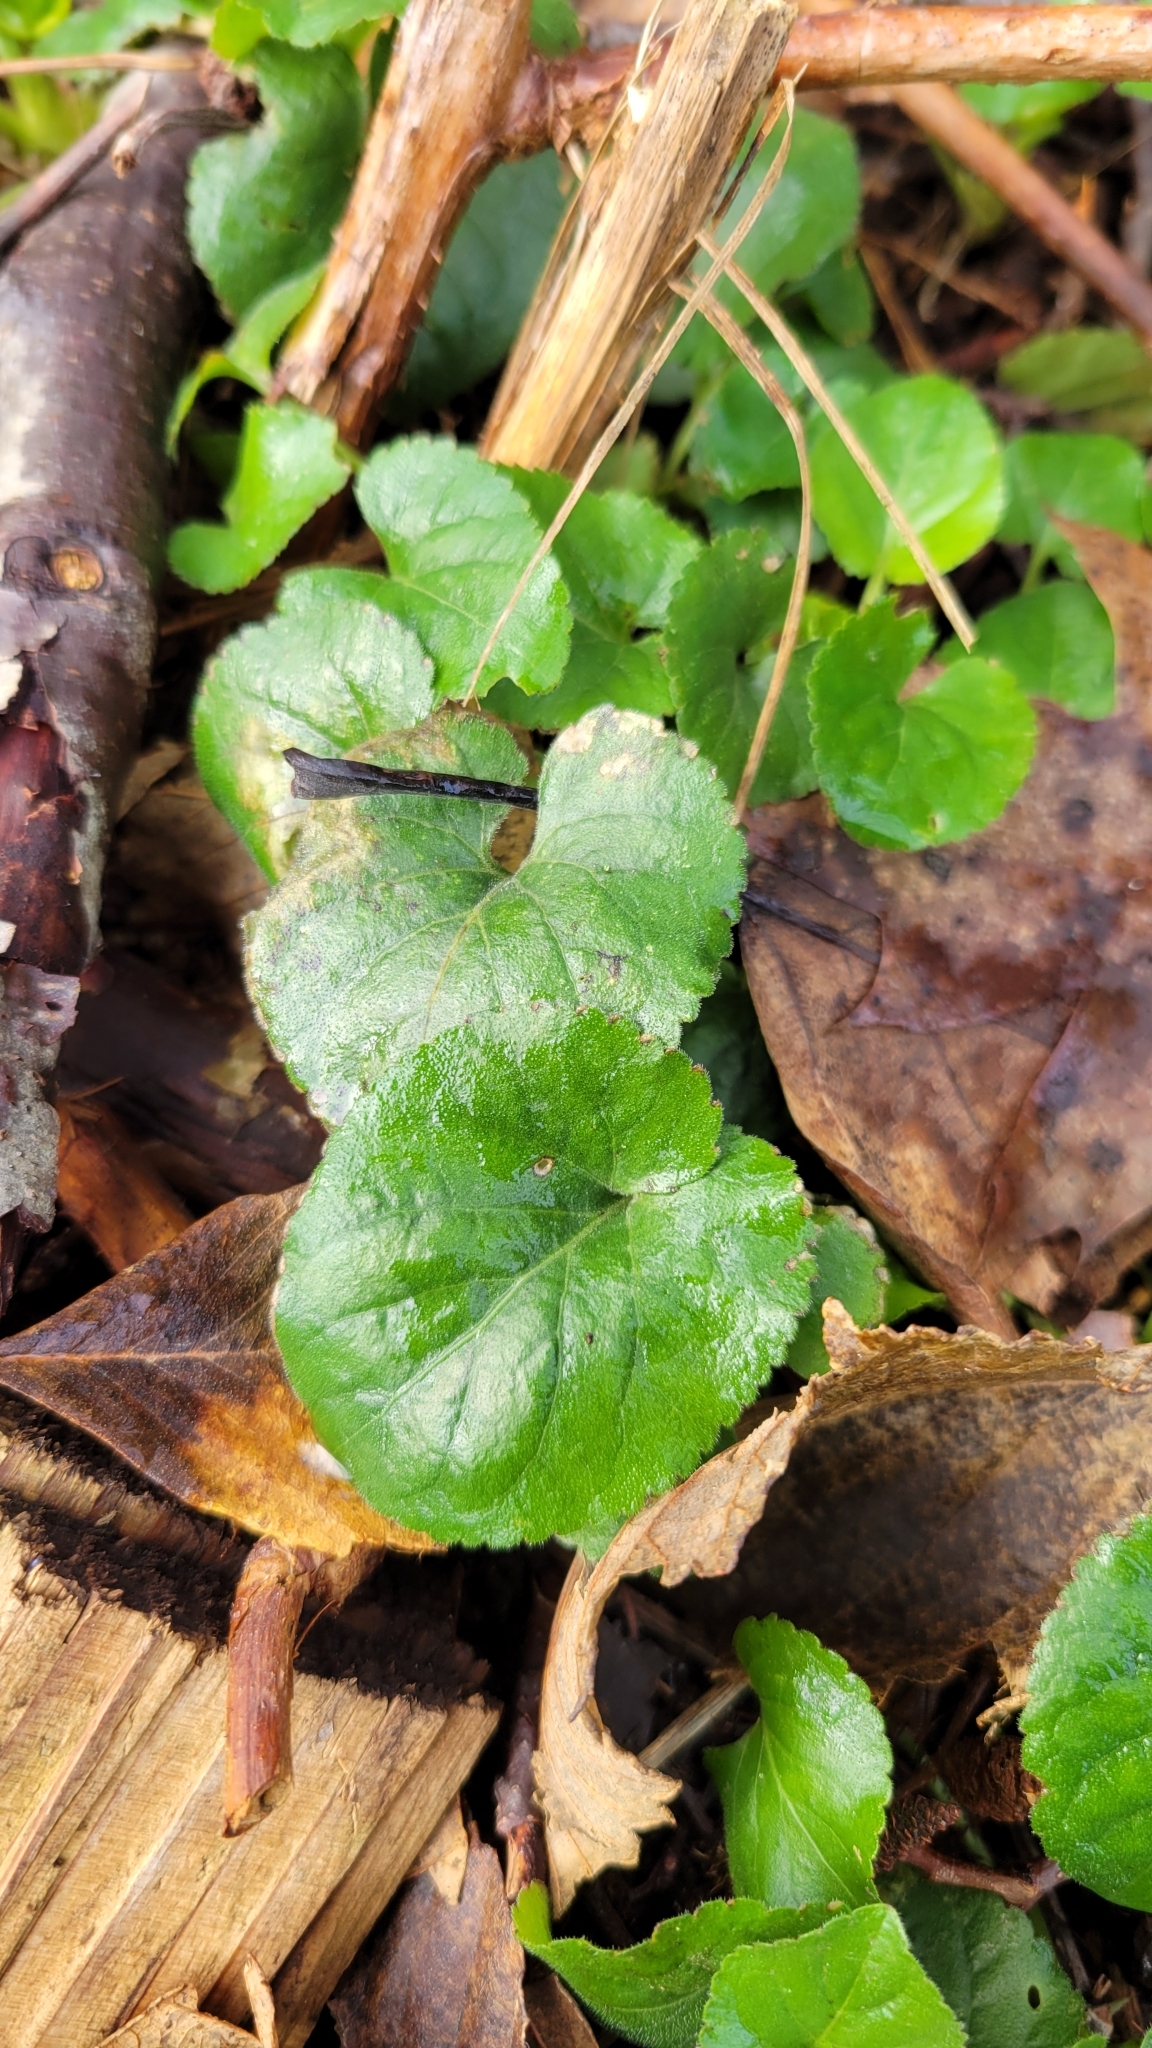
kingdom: Plantae
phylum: Tracheophyta
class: Magnoliopsida
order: Malpighiales
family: Violaceae
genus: Viola
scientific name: Viola odorata
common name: Sweet violet
